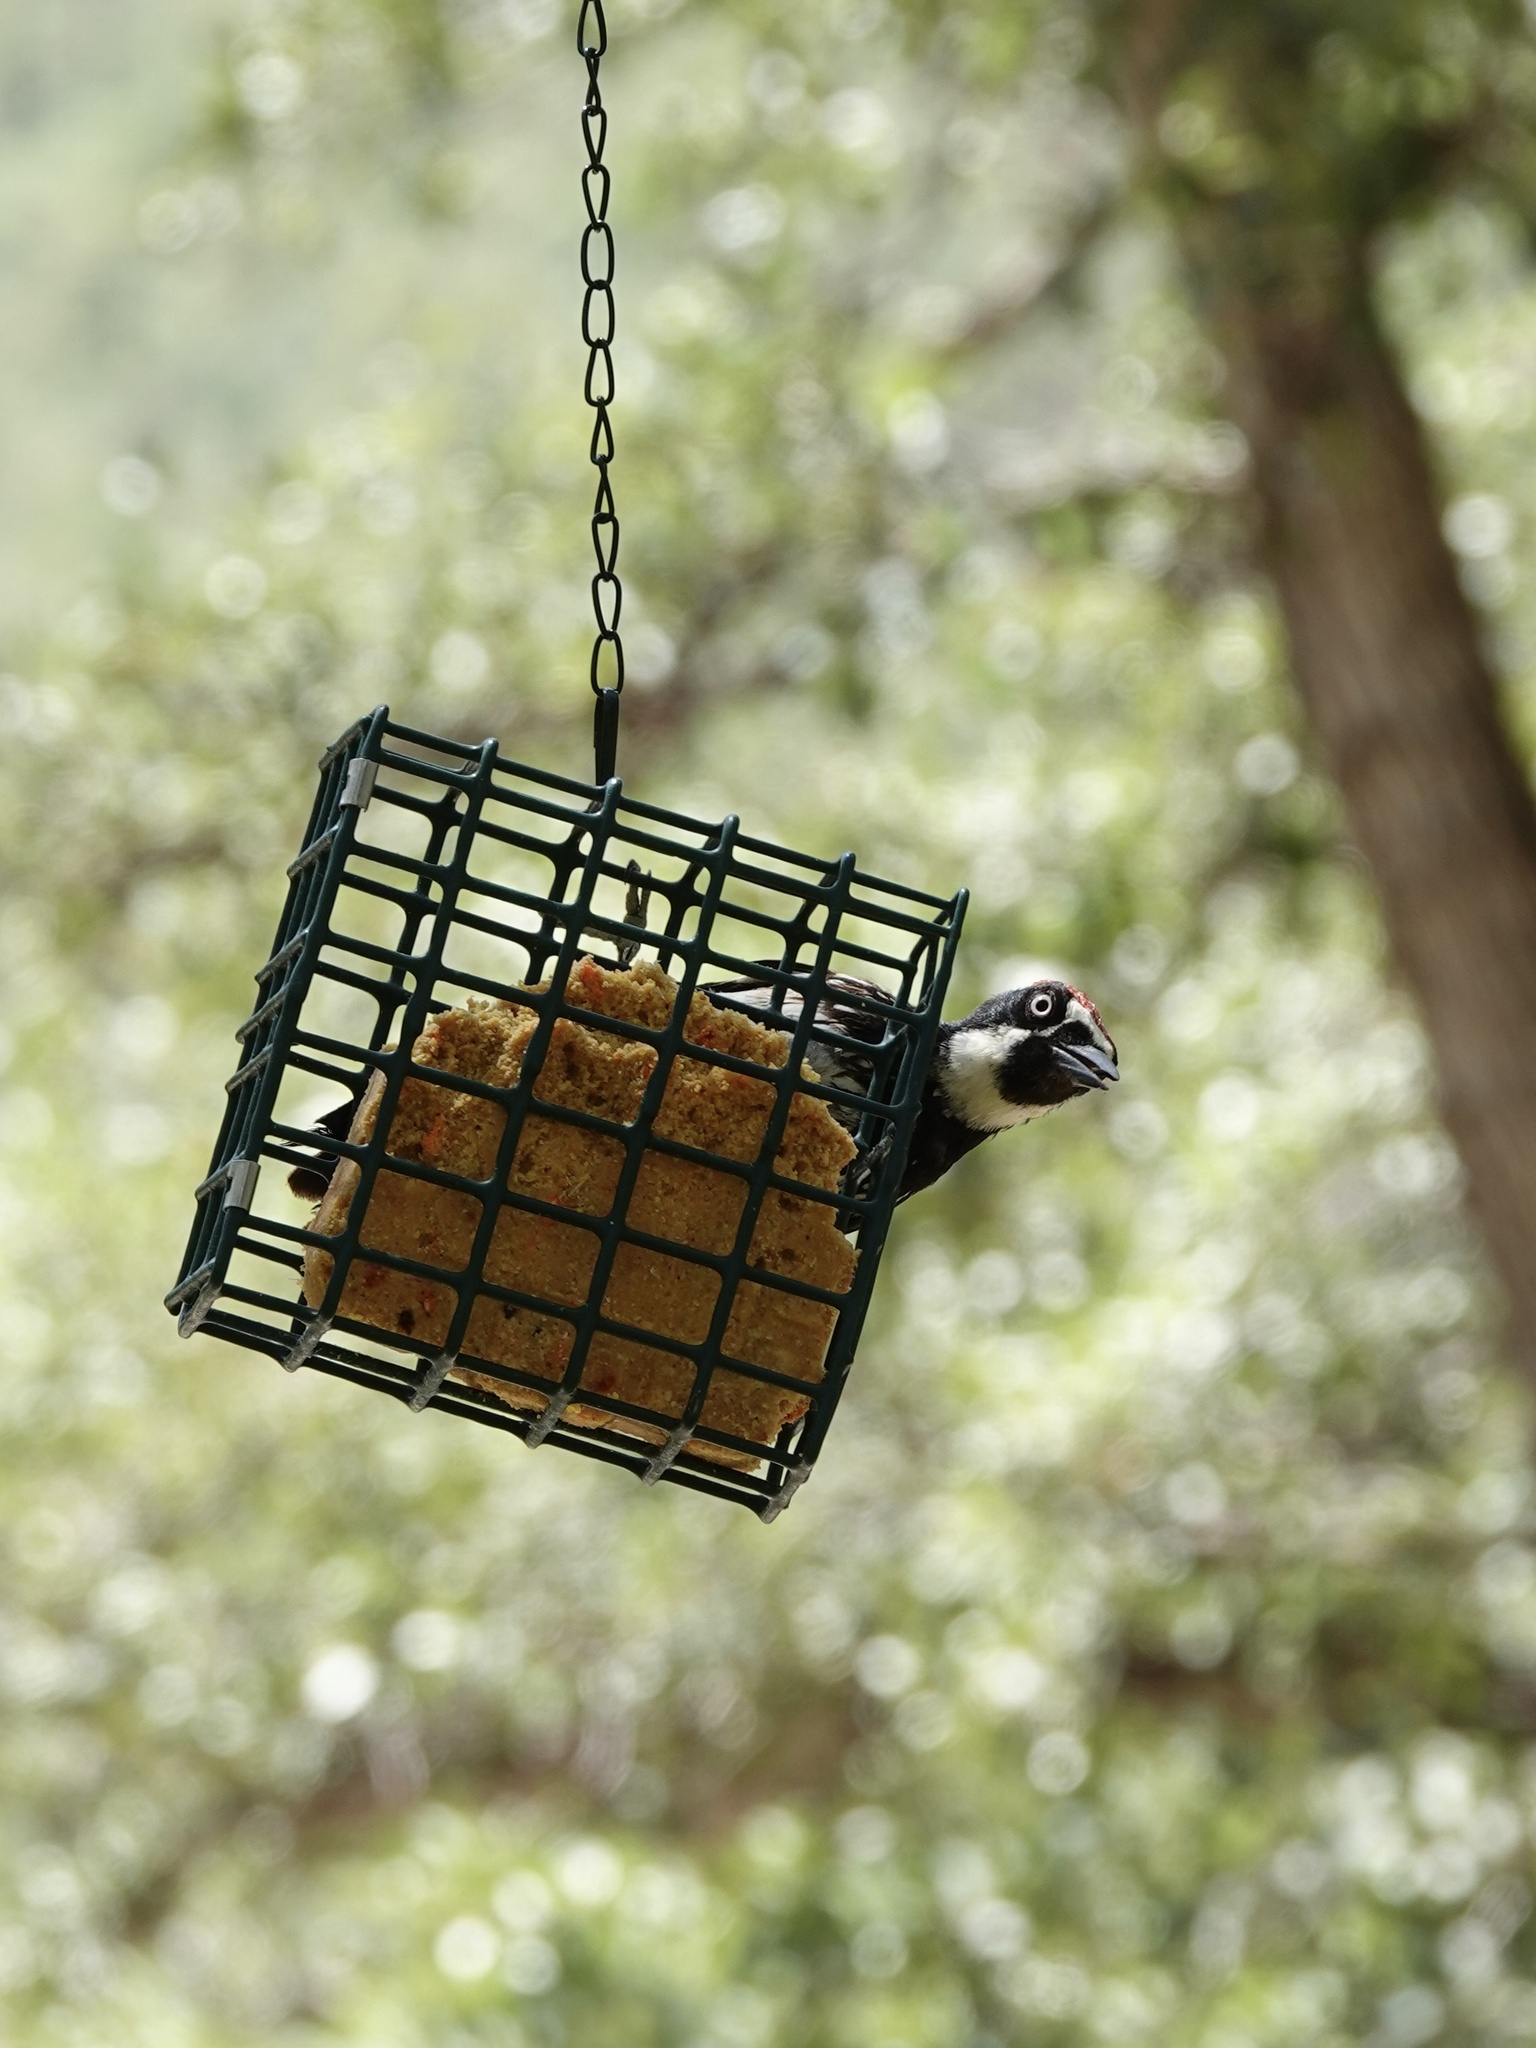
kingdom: Animalia
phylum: Chordata
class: Aves
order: Piciformes
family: Picidae
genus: Melanerpes
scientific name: Melanerpes formicivorus
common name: Acorn woodpecker
